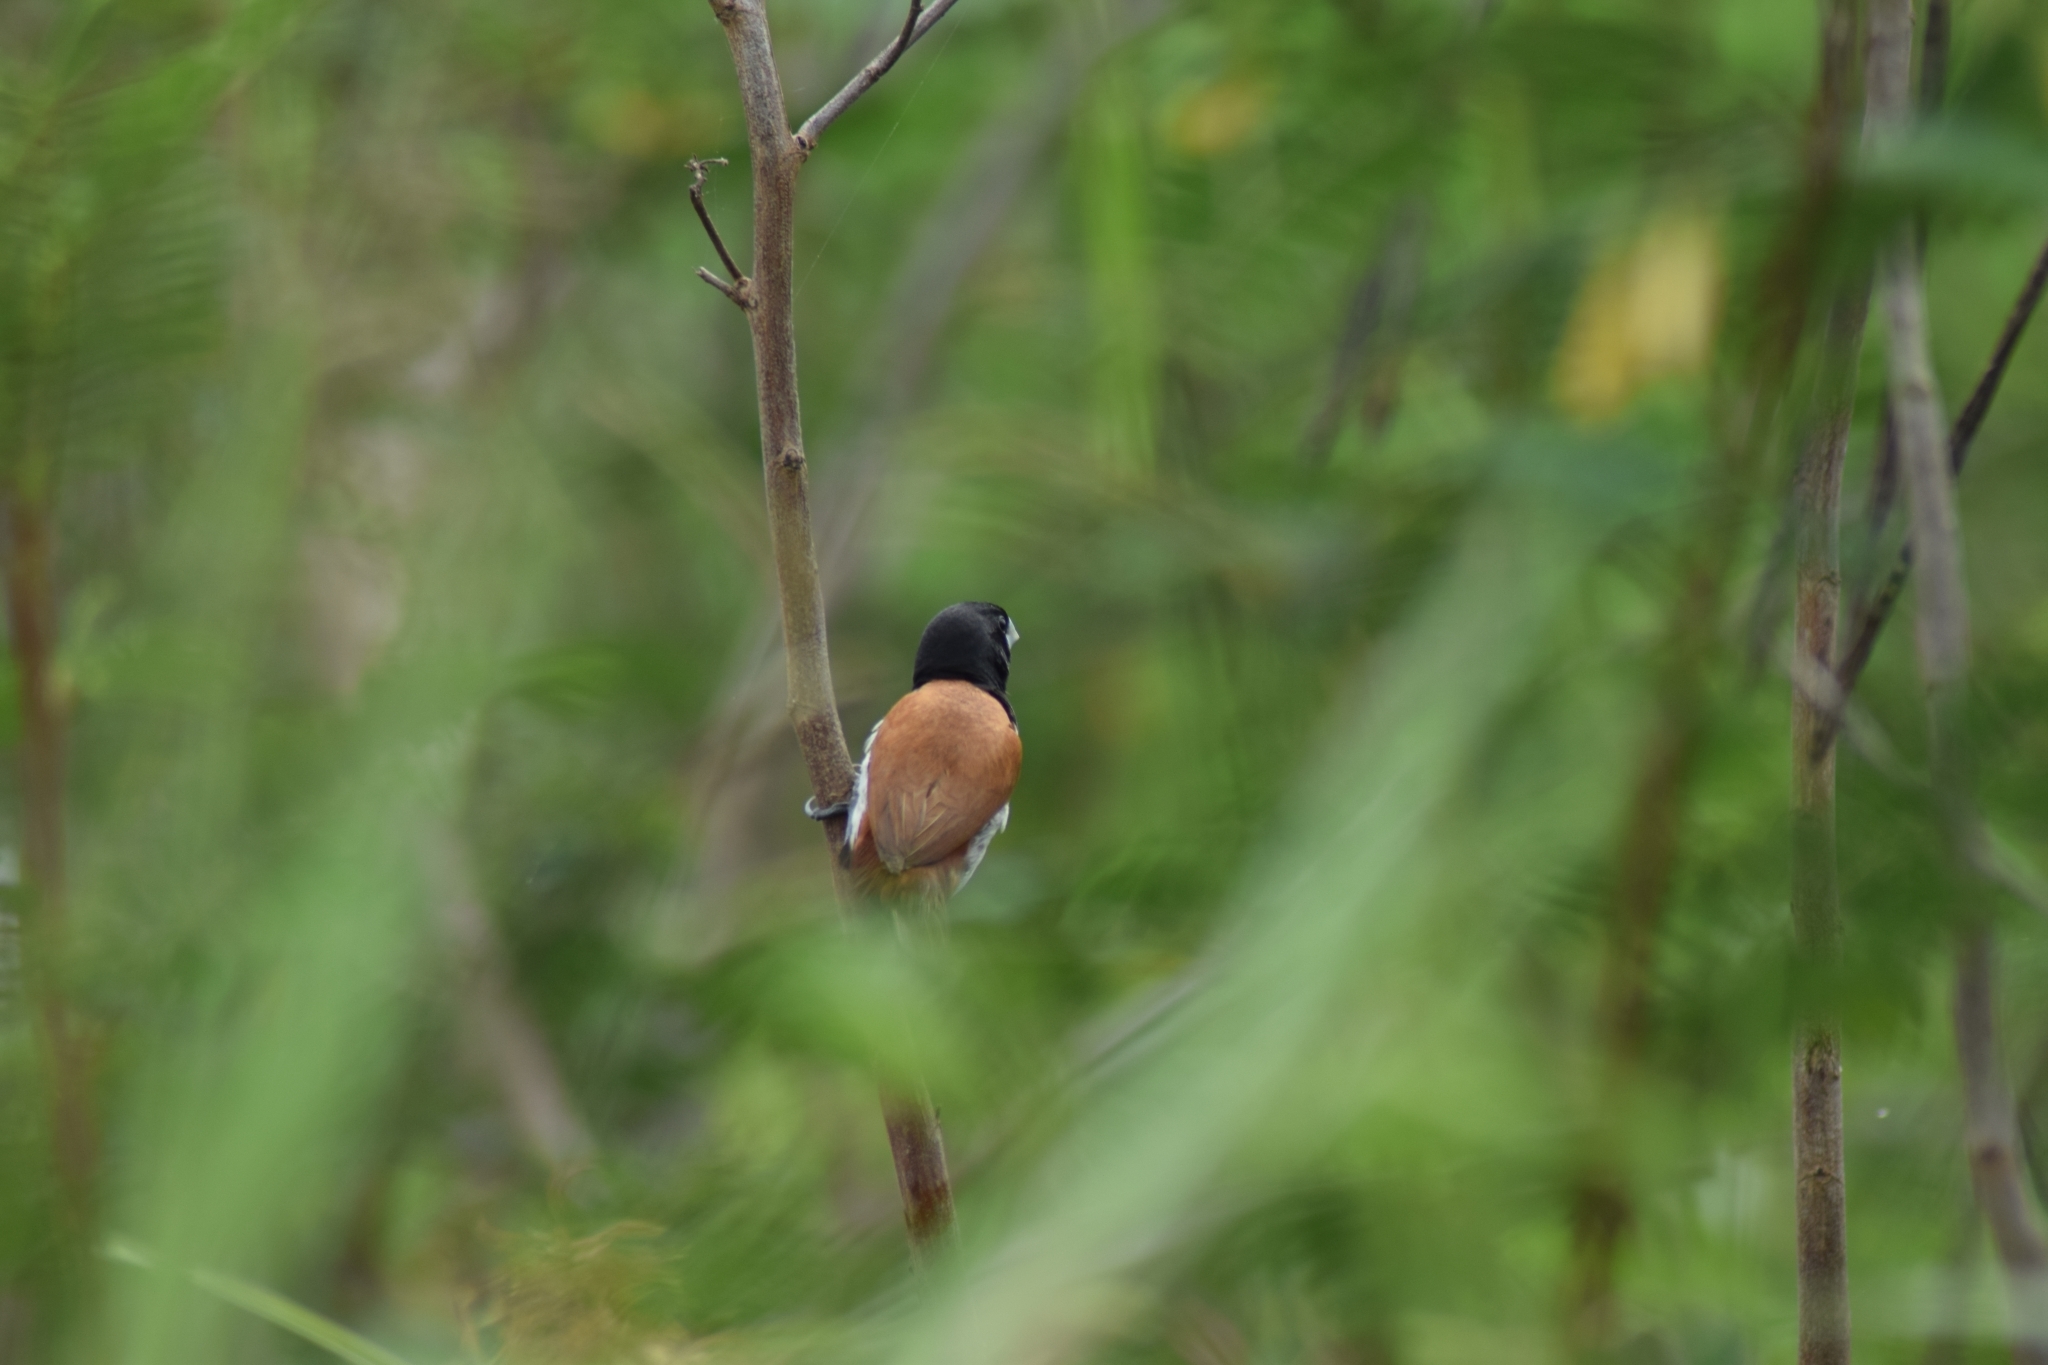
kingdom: Animalia
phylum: Chordata
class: Aves
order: Passeriformes
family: Estrildidae
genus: Lonchura
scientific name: Lonchura malacca
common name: Tricolored munia
